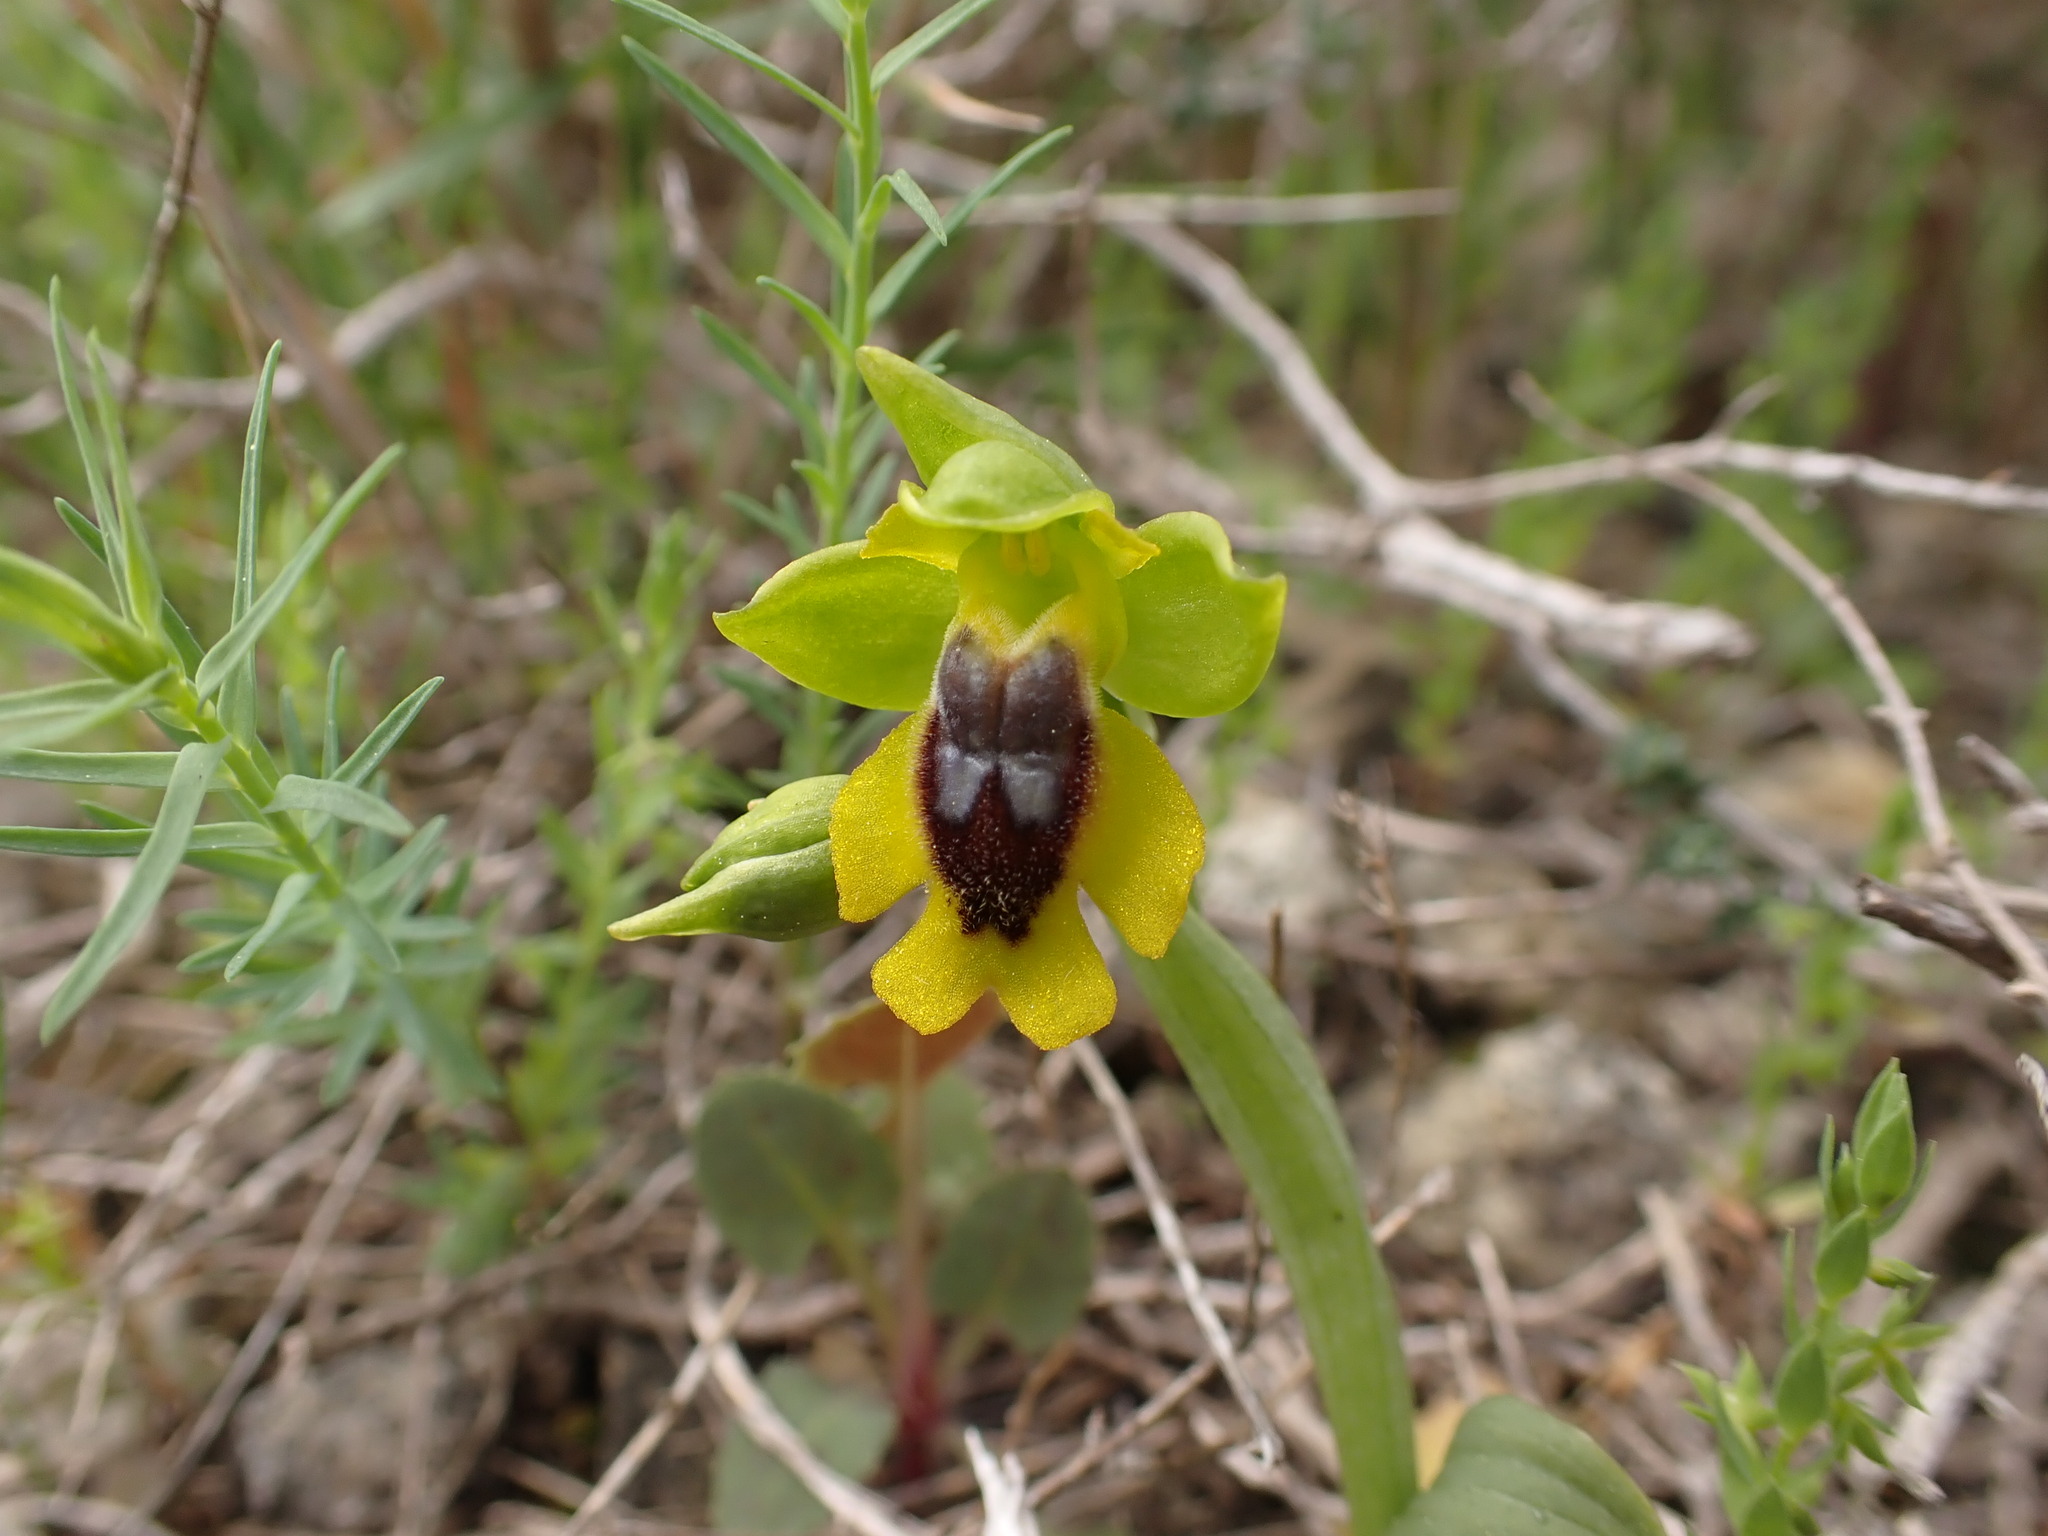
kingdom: Plantae
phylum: Tracheophyta
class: Liliopsida
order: Asparagales
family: Orchidaceae
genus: Ophrys
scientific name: Ophrys lutea
